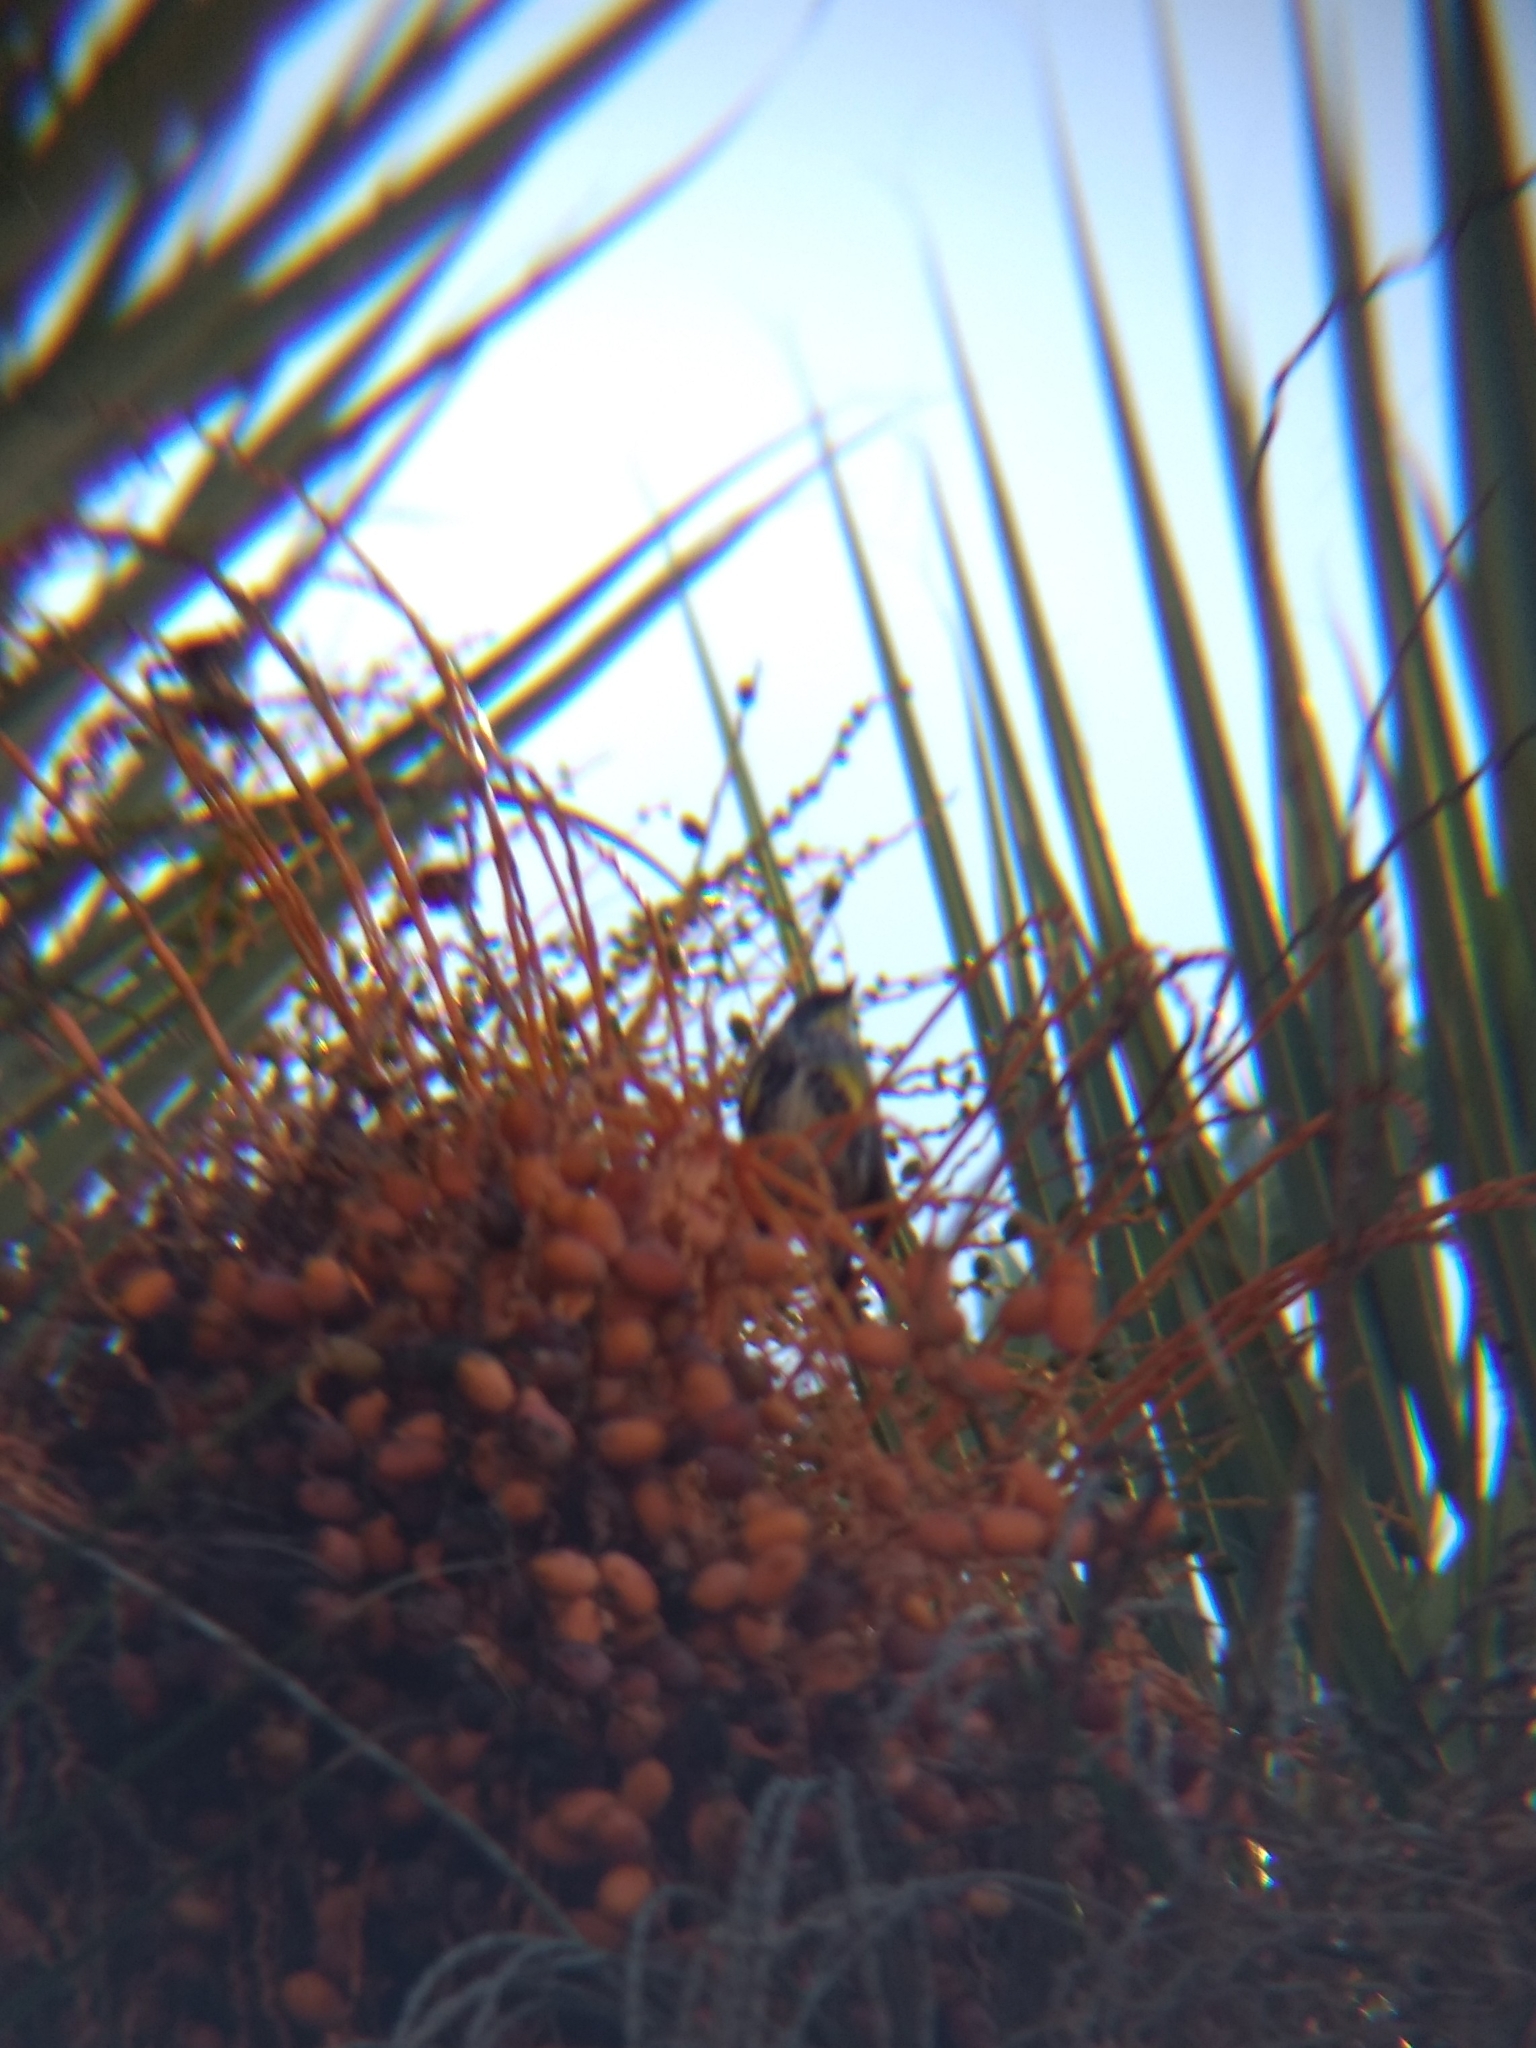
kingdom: Animalia
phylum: Chordata
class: Aves
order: Passeriformes
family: Parulidae
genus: Setophaga
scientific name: Setophaga coronata
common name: Myrtle warbler
